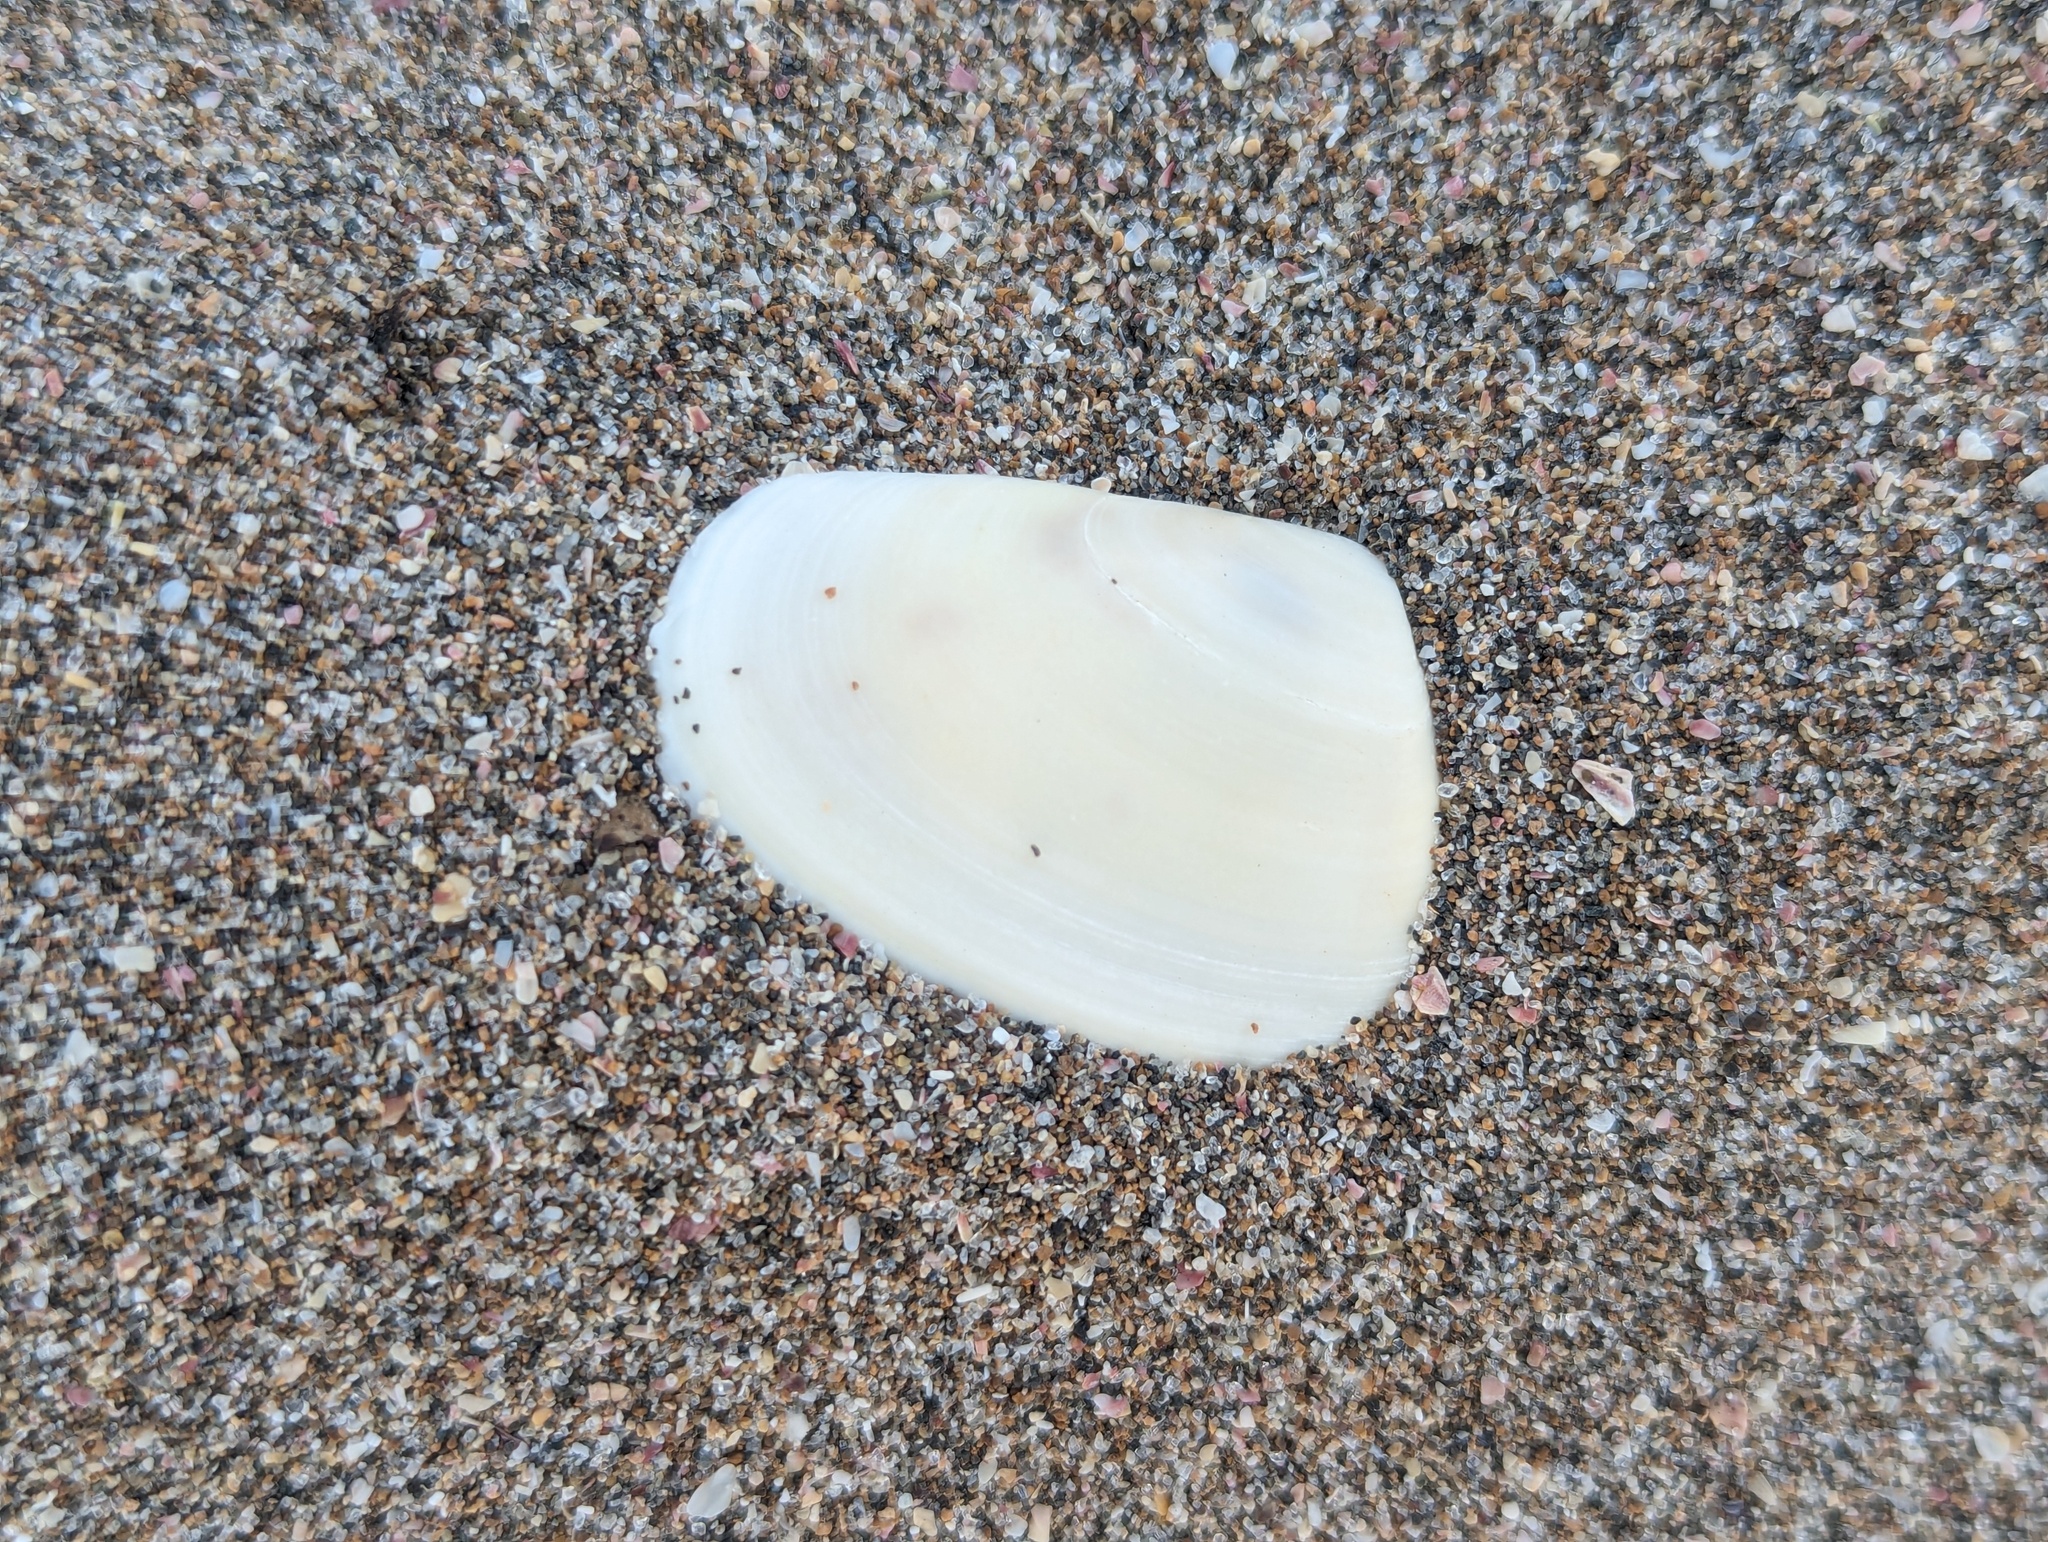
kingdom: Animalia
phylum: Mollusca
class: Bivalvia
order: Venerida
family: Mesodesmatidae
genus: Paphies
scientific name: Paphies subtriangulata
